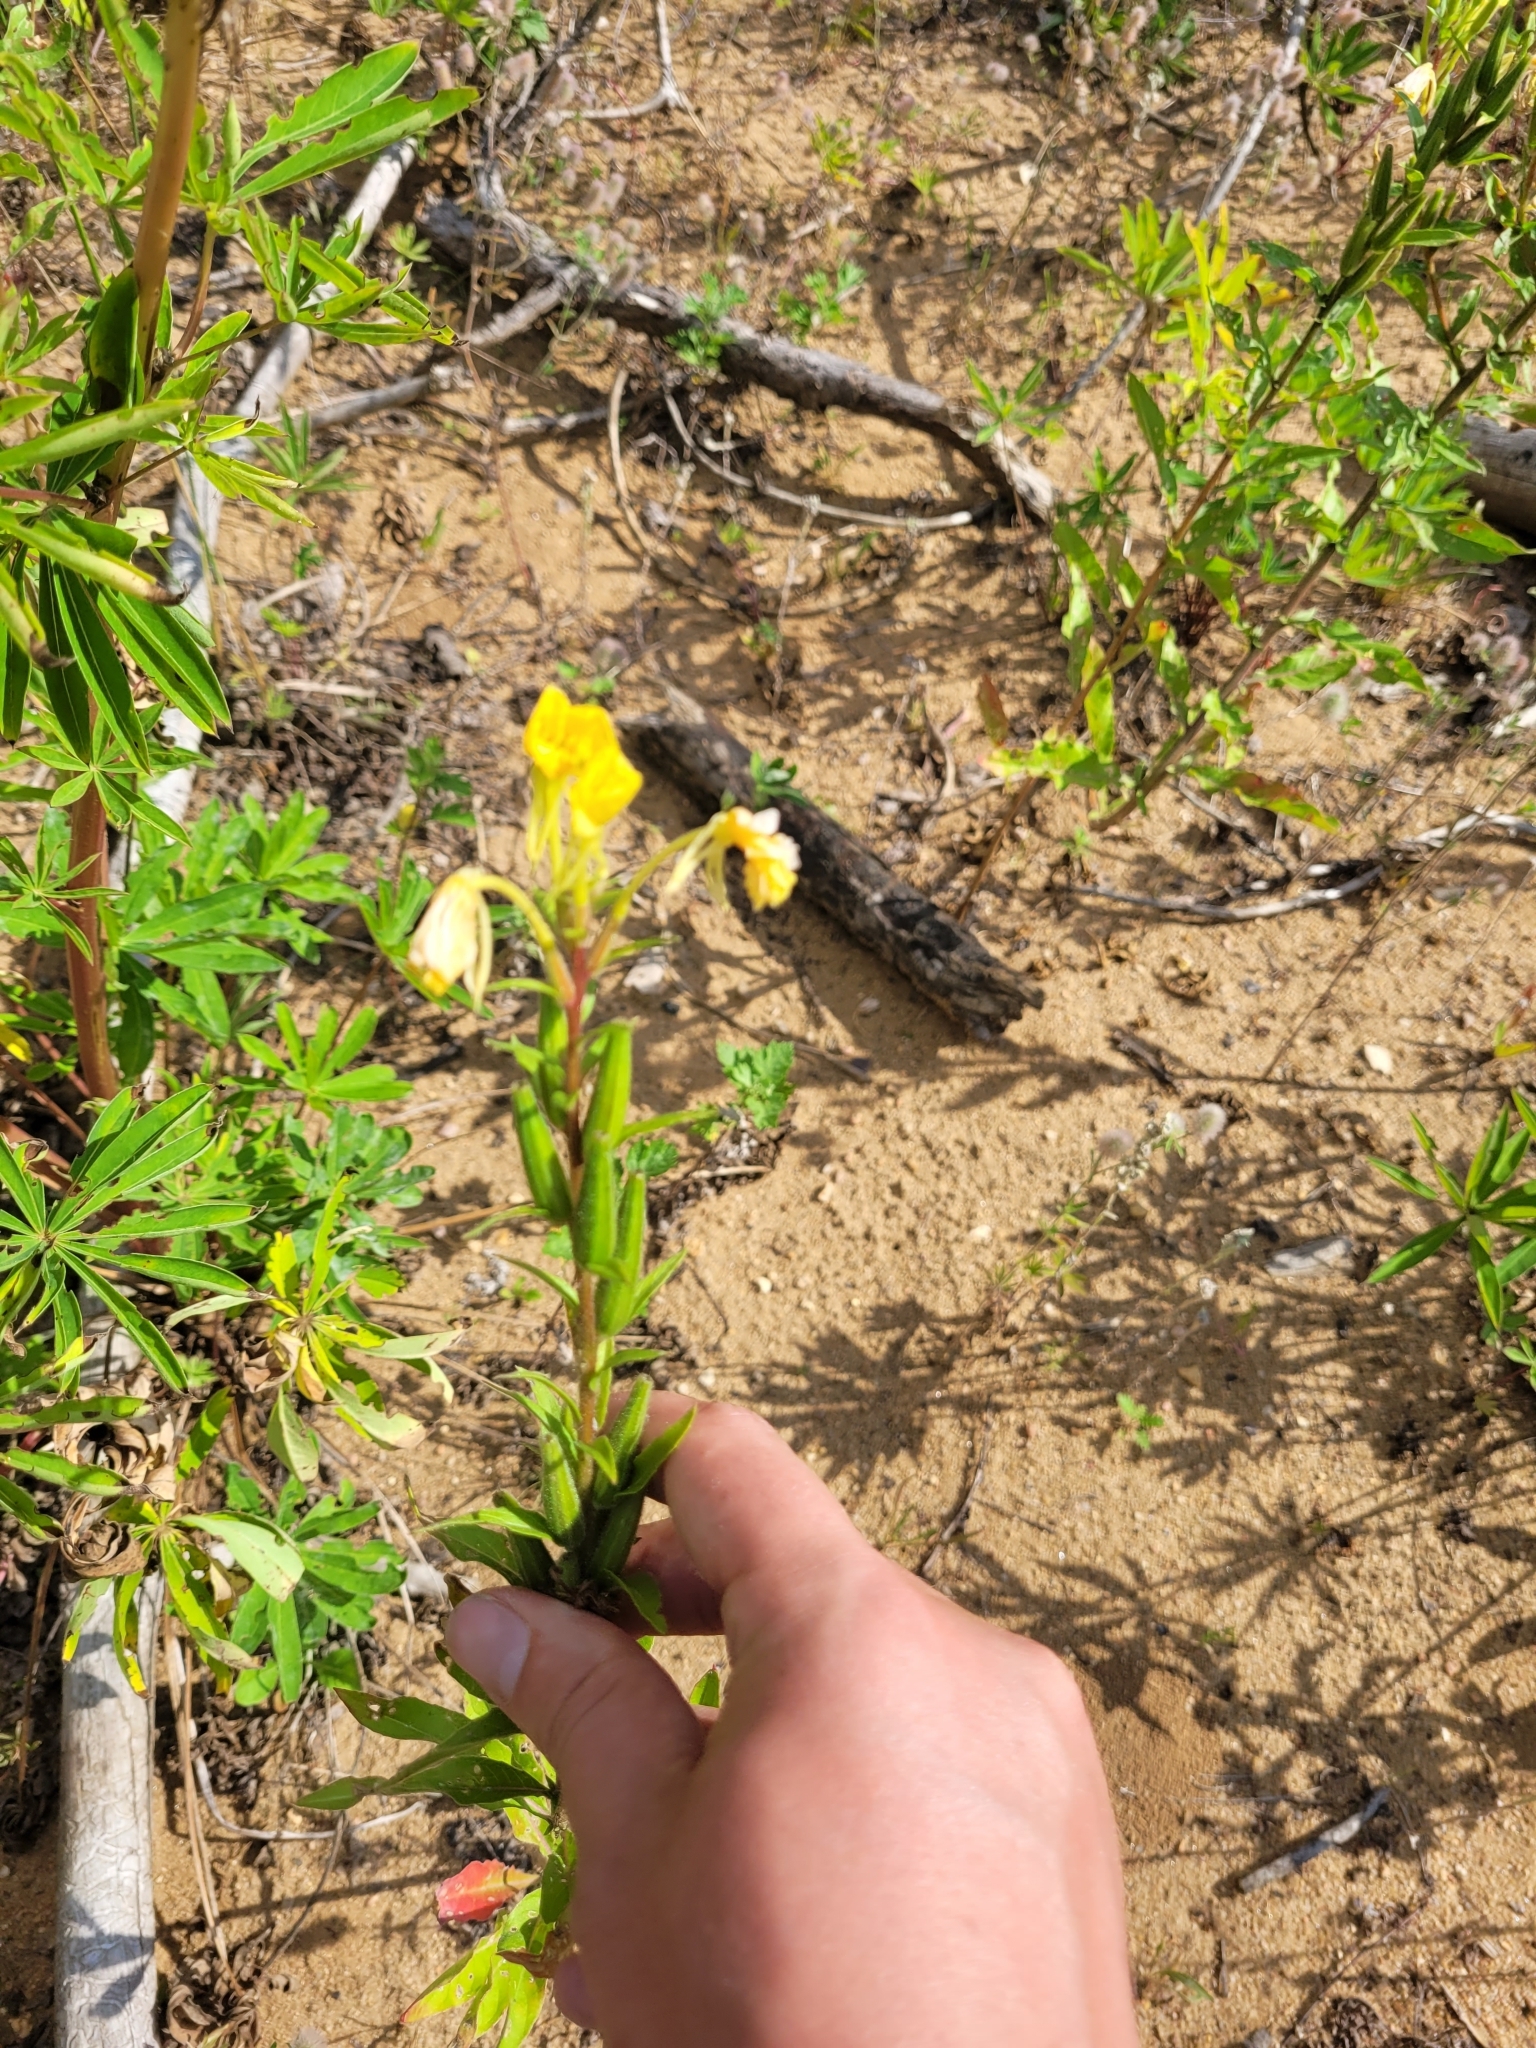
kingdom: Plantae
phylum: Tracheophyta
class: Magnoliopsida
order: Myrtales
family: Onagraceae
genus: Oenothera
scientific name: Oenothera rubricaulis
